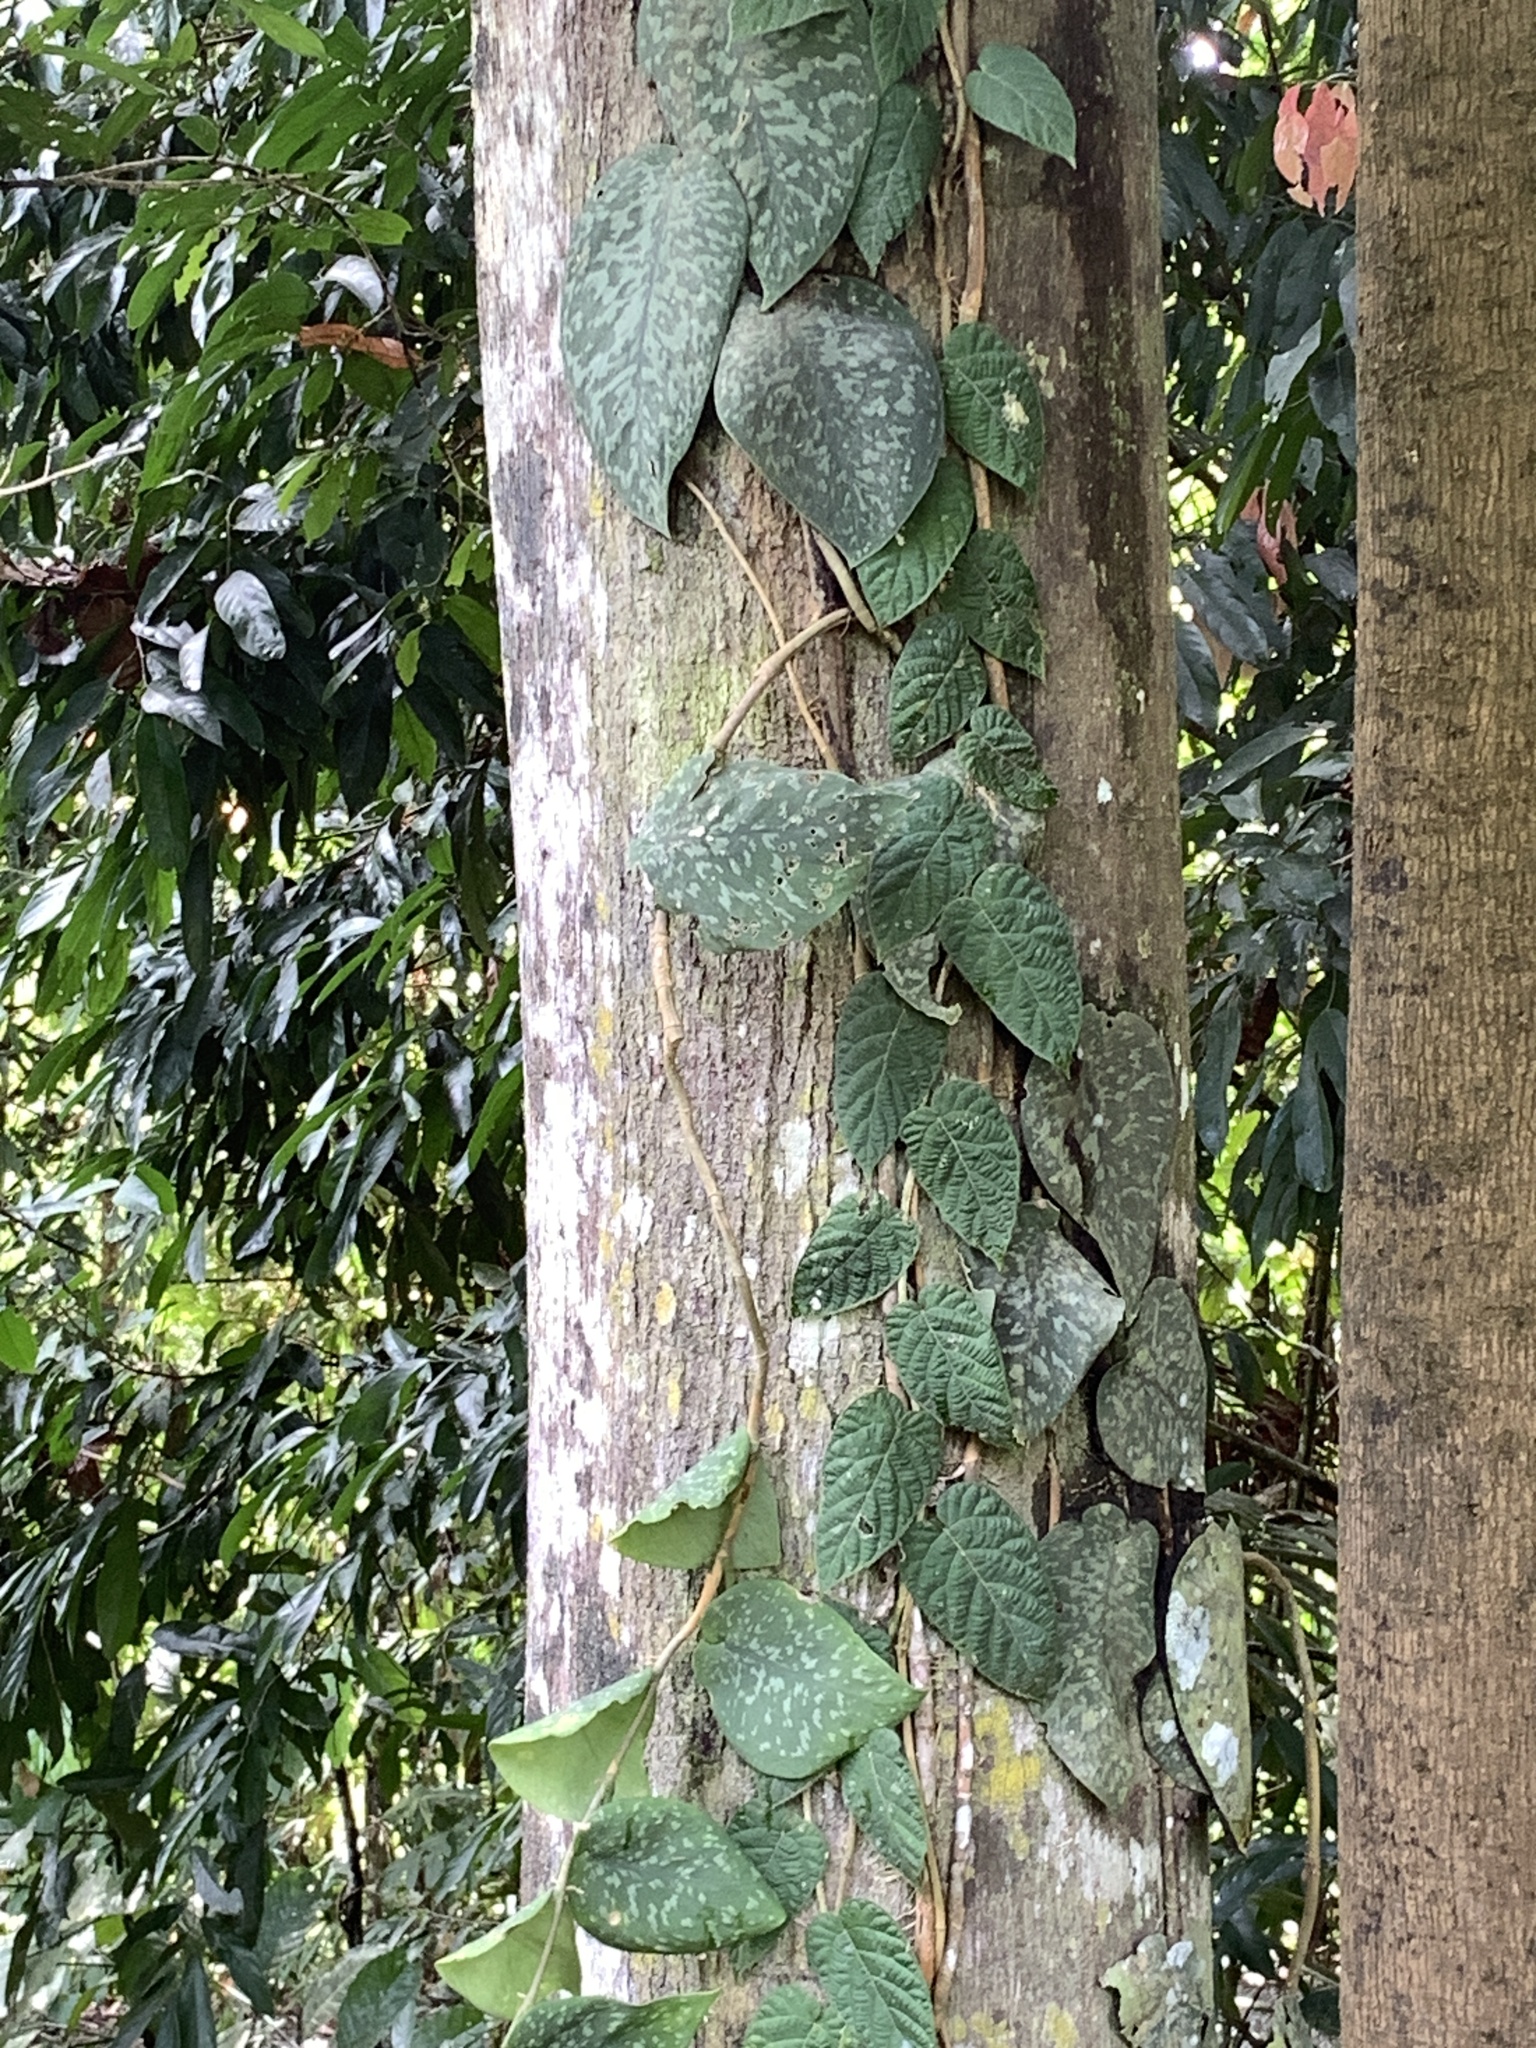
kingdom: Plantae
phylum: Tracheophyta
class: Magnoliopsida
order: Rosales
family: Moraceae
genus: Ficus
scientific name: Ficus villosa
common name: Villous fig
